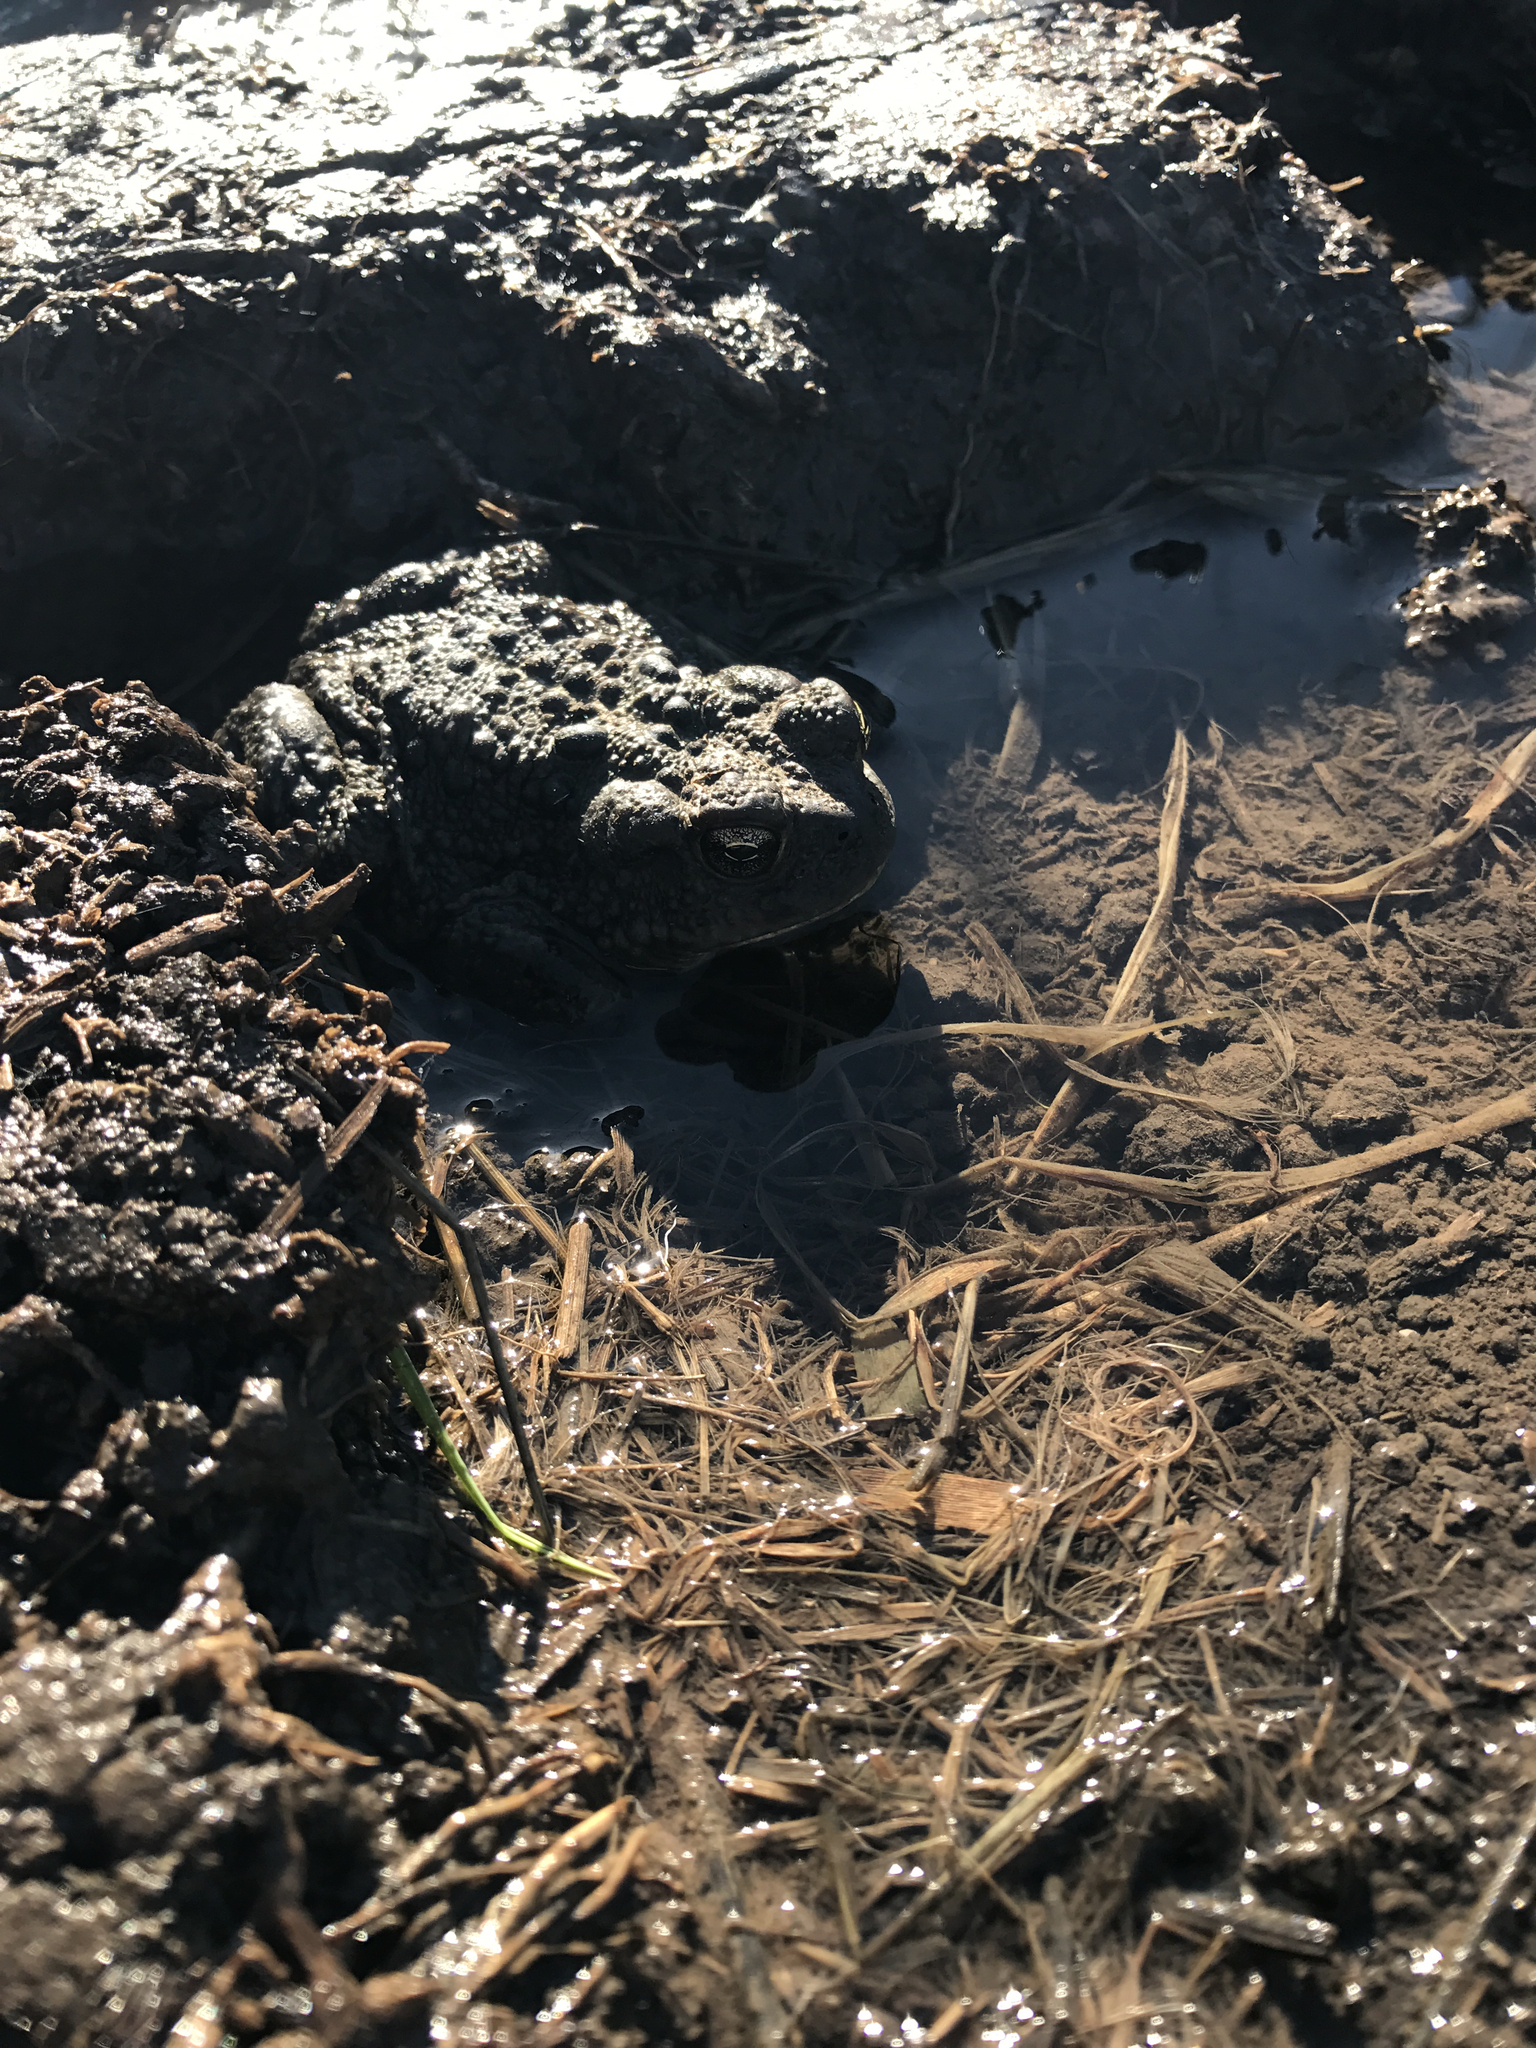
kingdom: Animalia
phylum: Chordata
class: Amphibia
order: Anura
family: Bufonidae
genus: Anaxyrus
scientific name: Anaxyrus boreas
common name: Western toad
